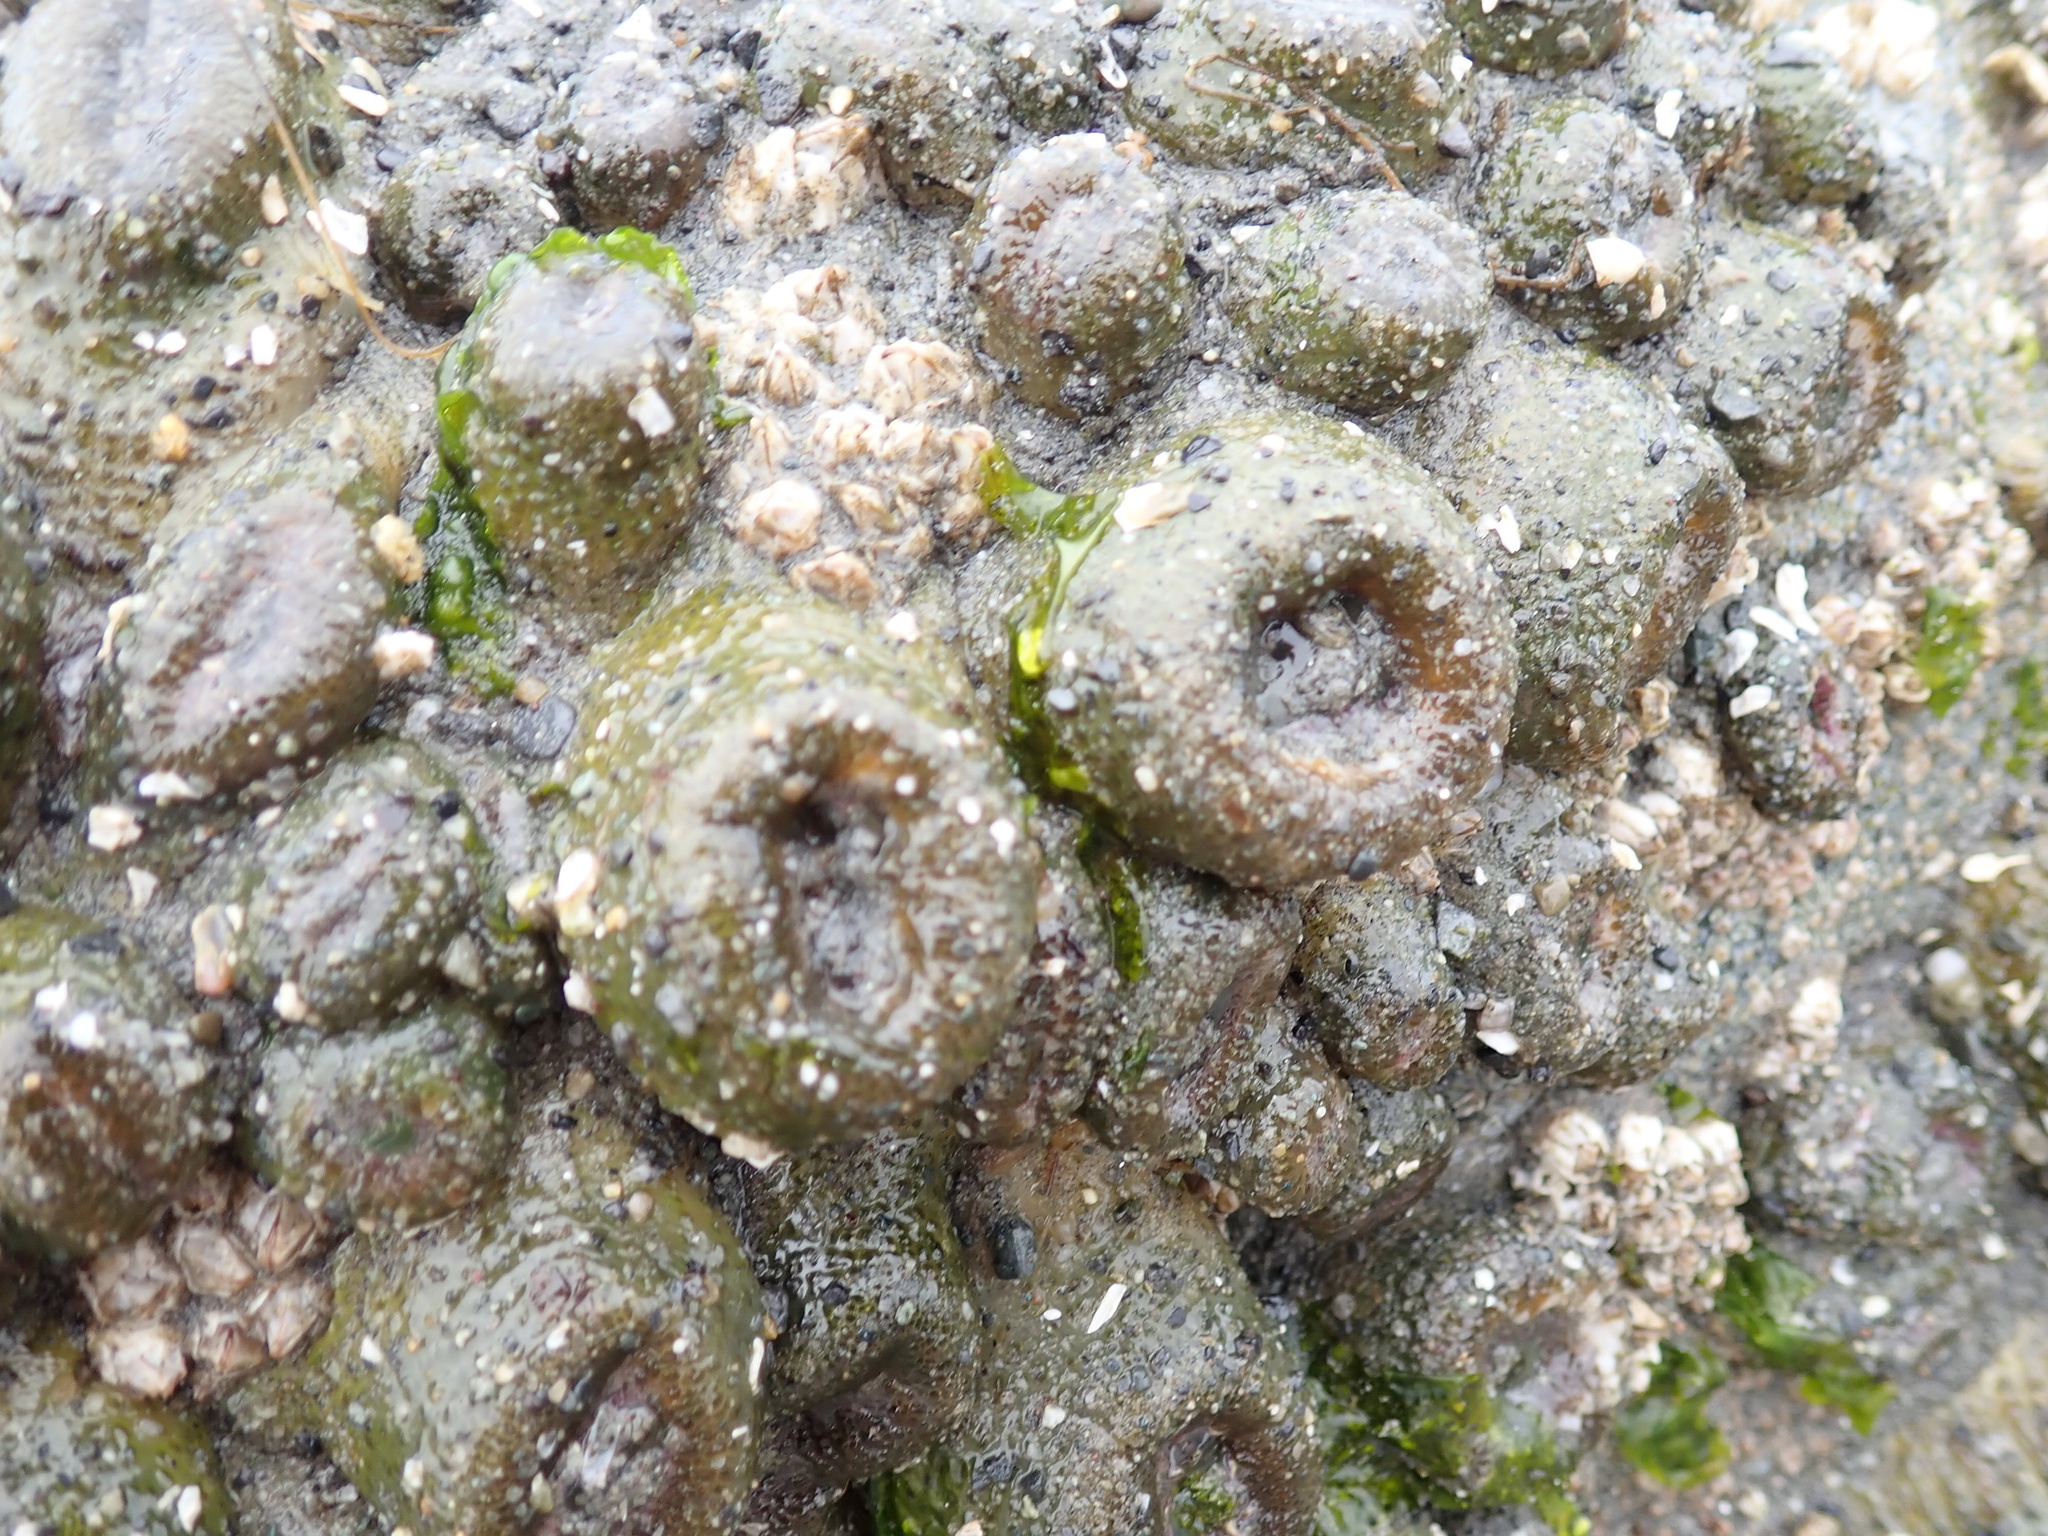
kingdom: Animalia
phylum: Cnidaria
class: Anthozoa
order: Actiniaria
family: Actiniidae
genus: Anthopleura
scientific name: Anthopleura elegantissima
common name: Clonal anemone
